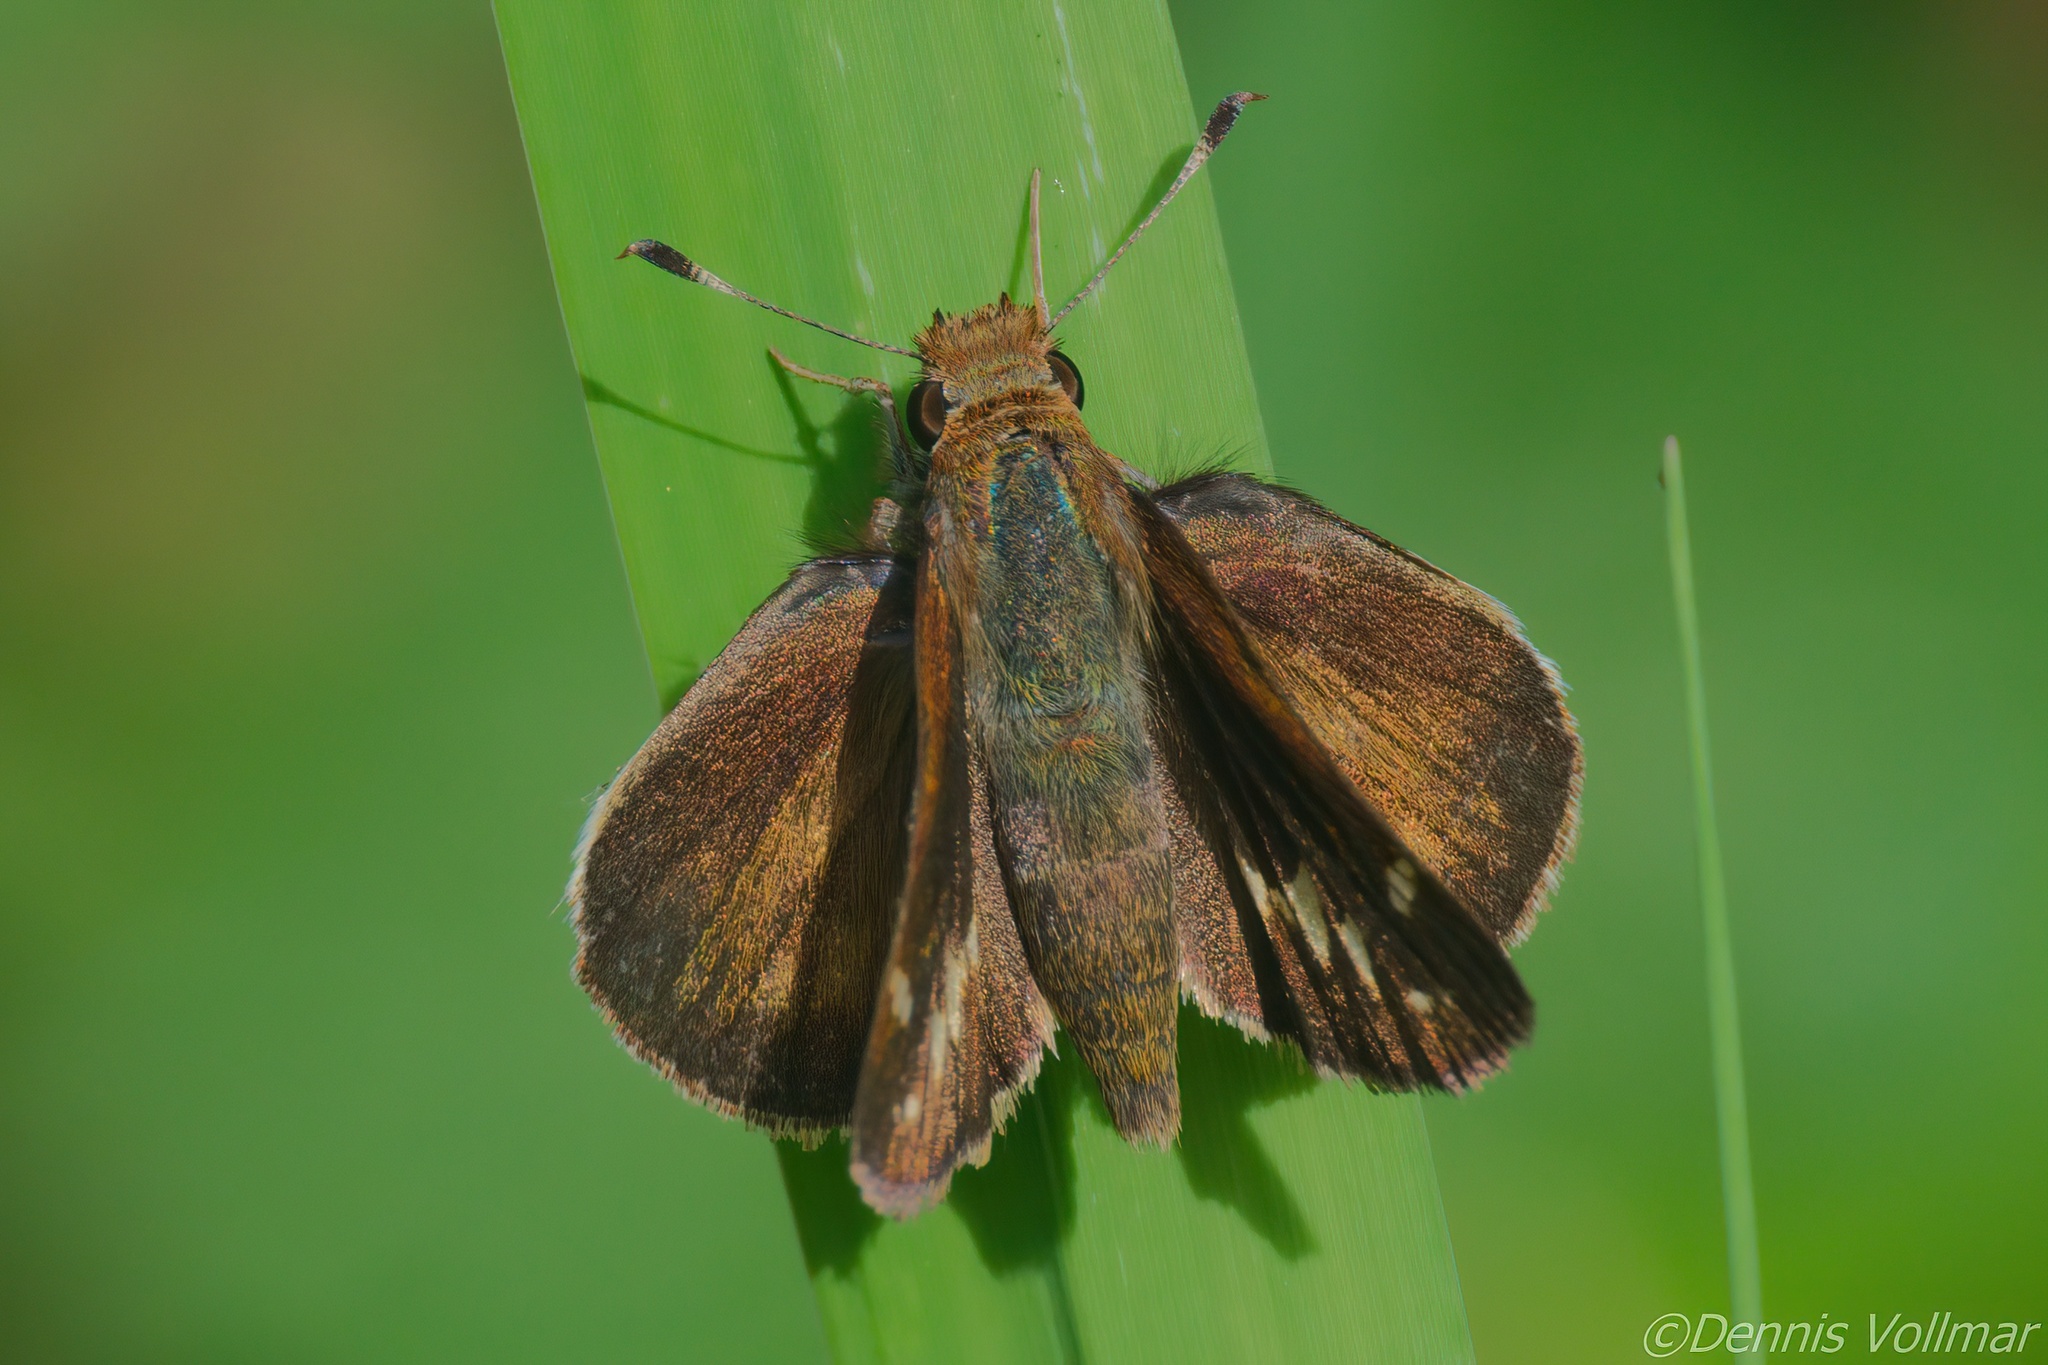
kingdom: Animalia
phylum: Arthropoda
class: Insecta
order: Lepidoptera
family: Hesperiidae
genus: Lon
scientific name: Lon zabulon
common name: Zabulon skipper
